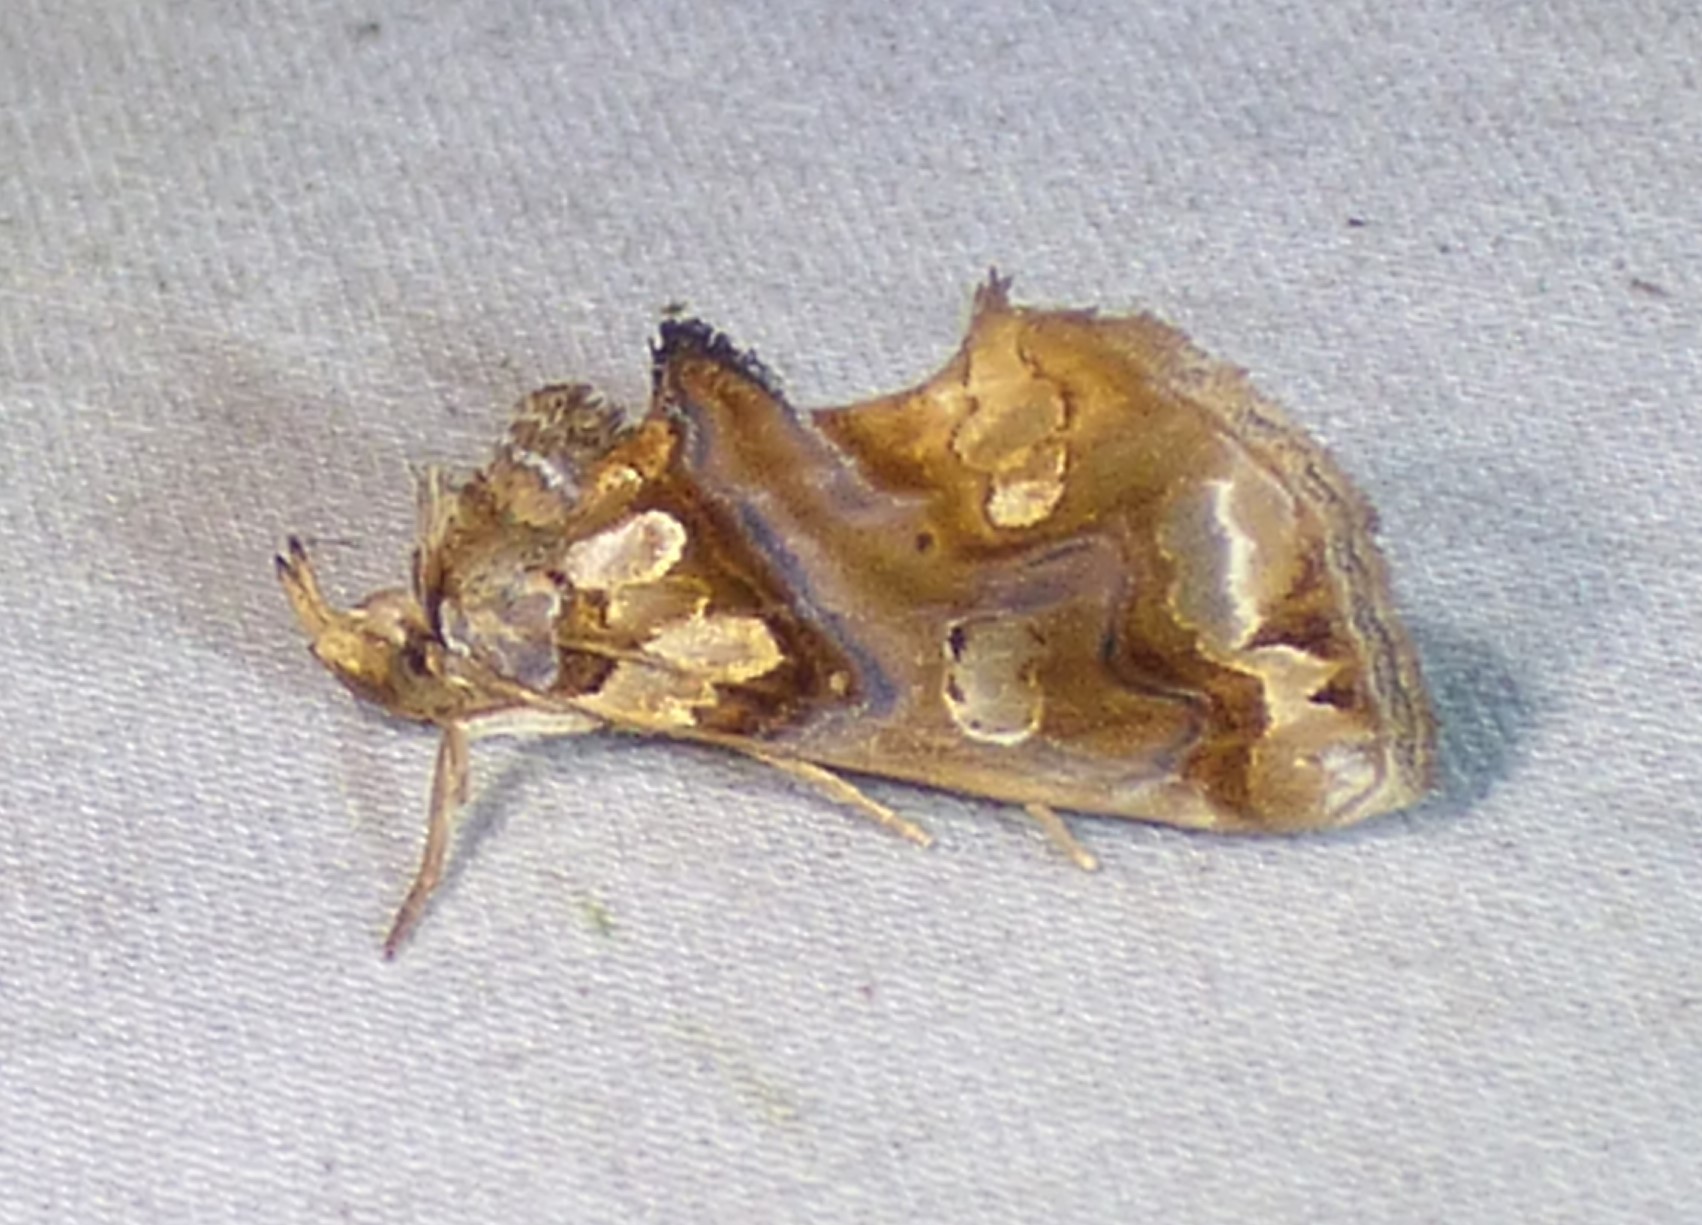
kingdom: Animalia
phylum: Arthropoda
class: Insecta
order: Lepidoptera
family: Erebidae
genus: Plusiodonta
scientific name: Plusiodonta compressipalpis
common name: Moonseed moth
